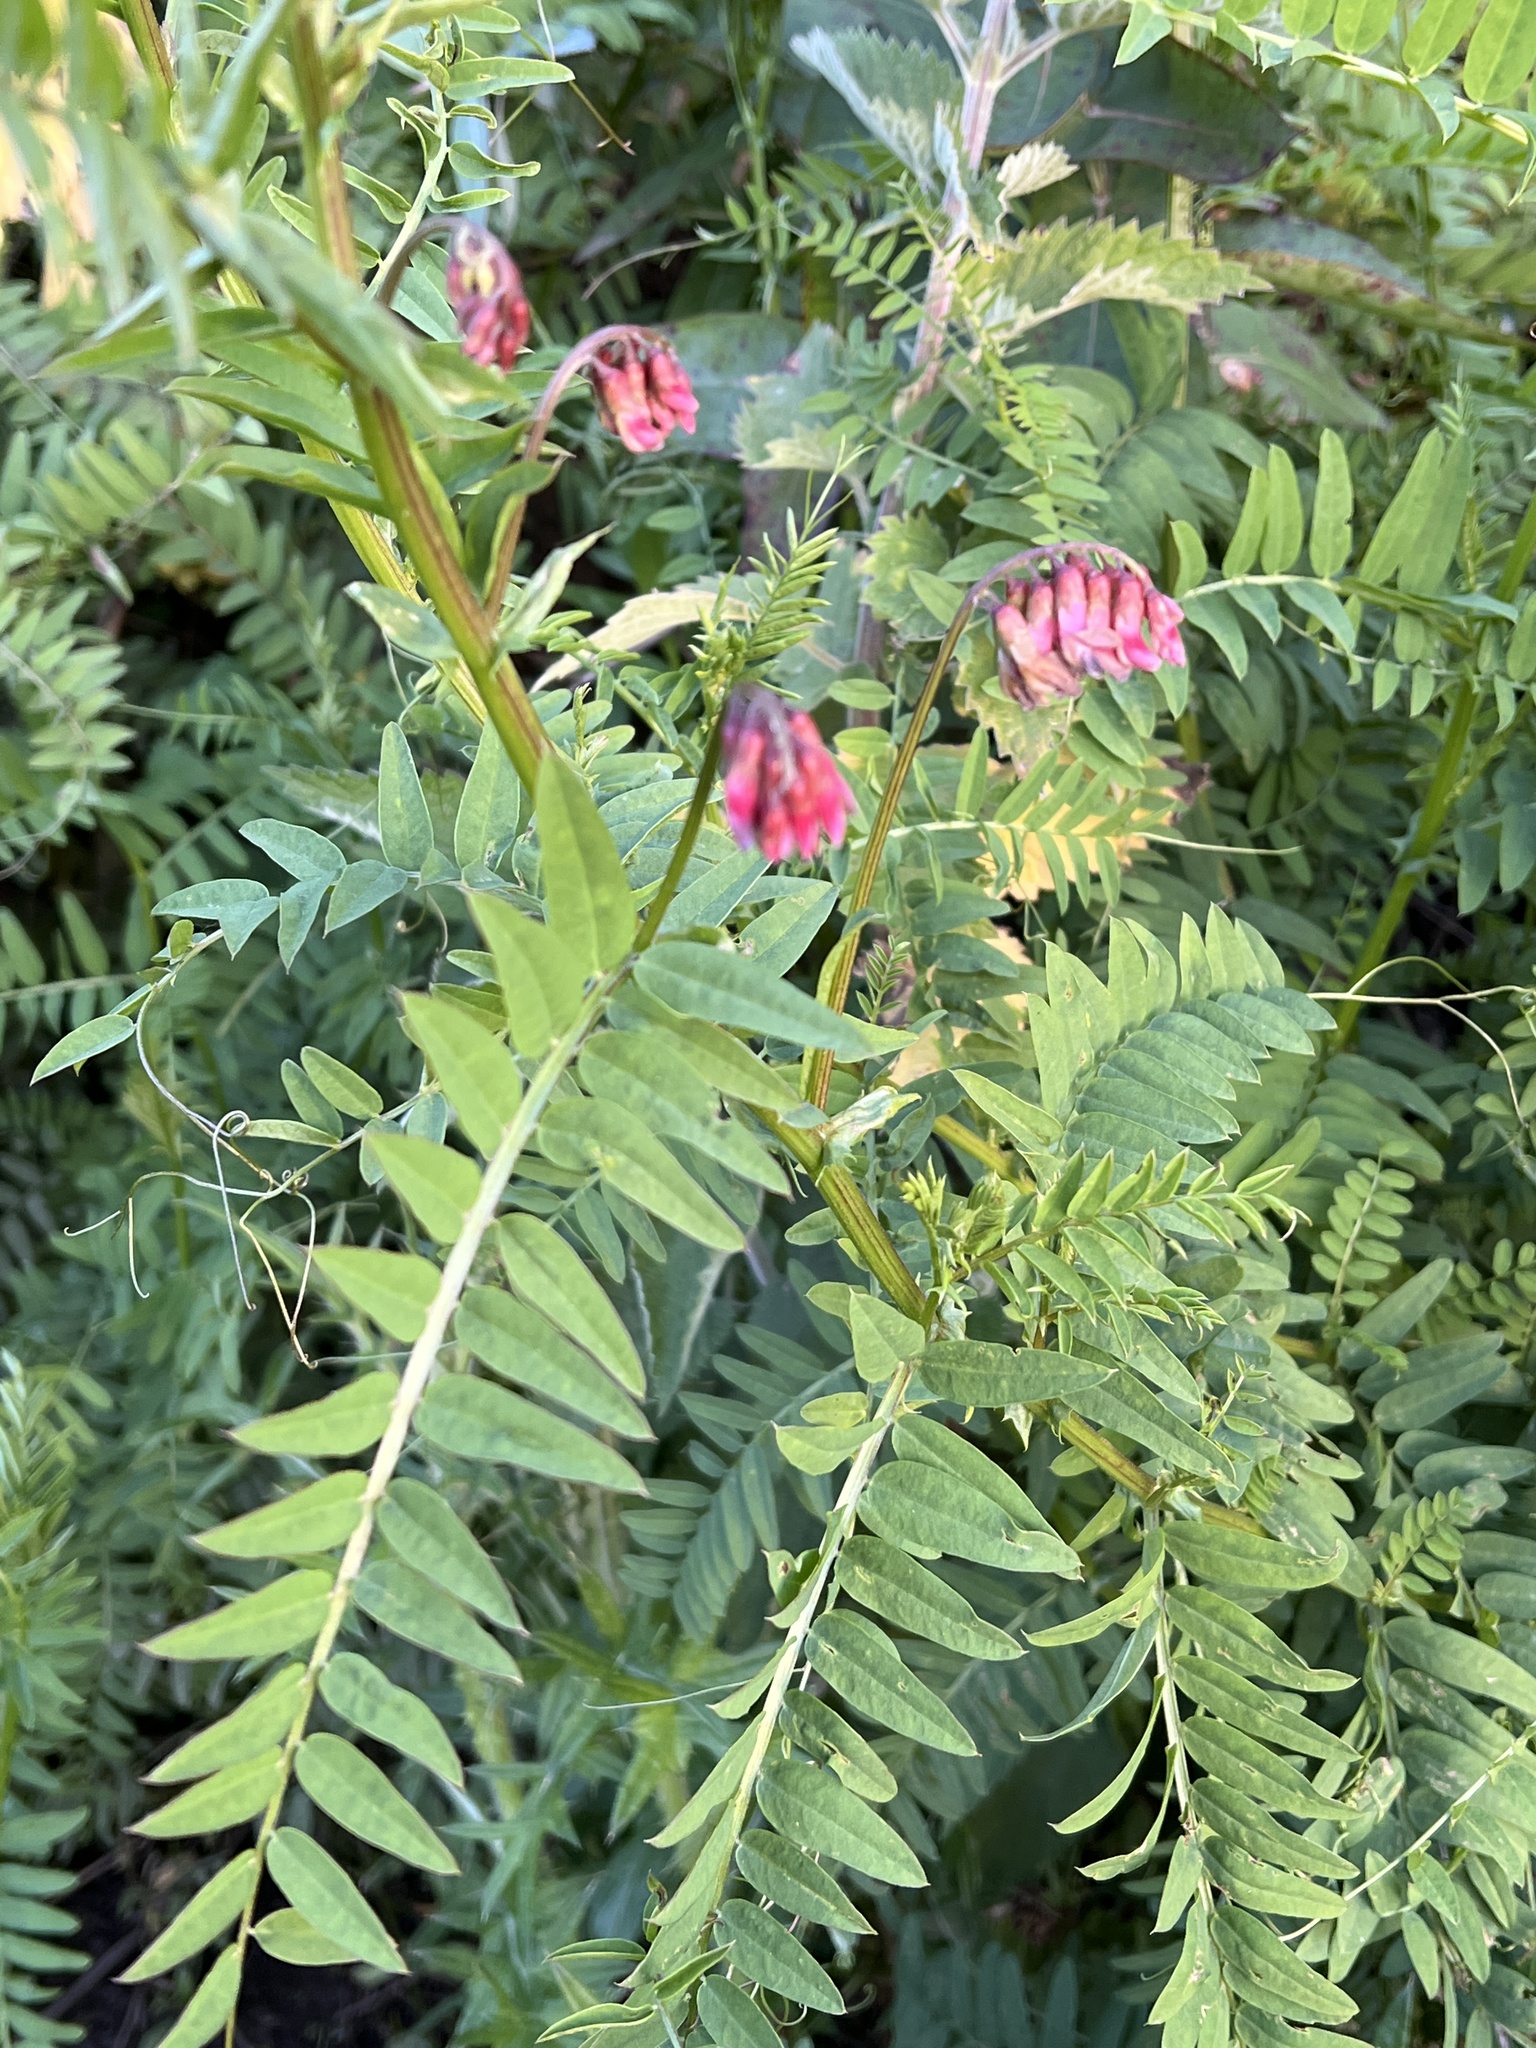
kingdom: Plantae
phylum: Tracheophyta
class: Magnoliopsida
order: Fabales
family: Fabaceae
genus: Vicia
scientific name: Vicia
